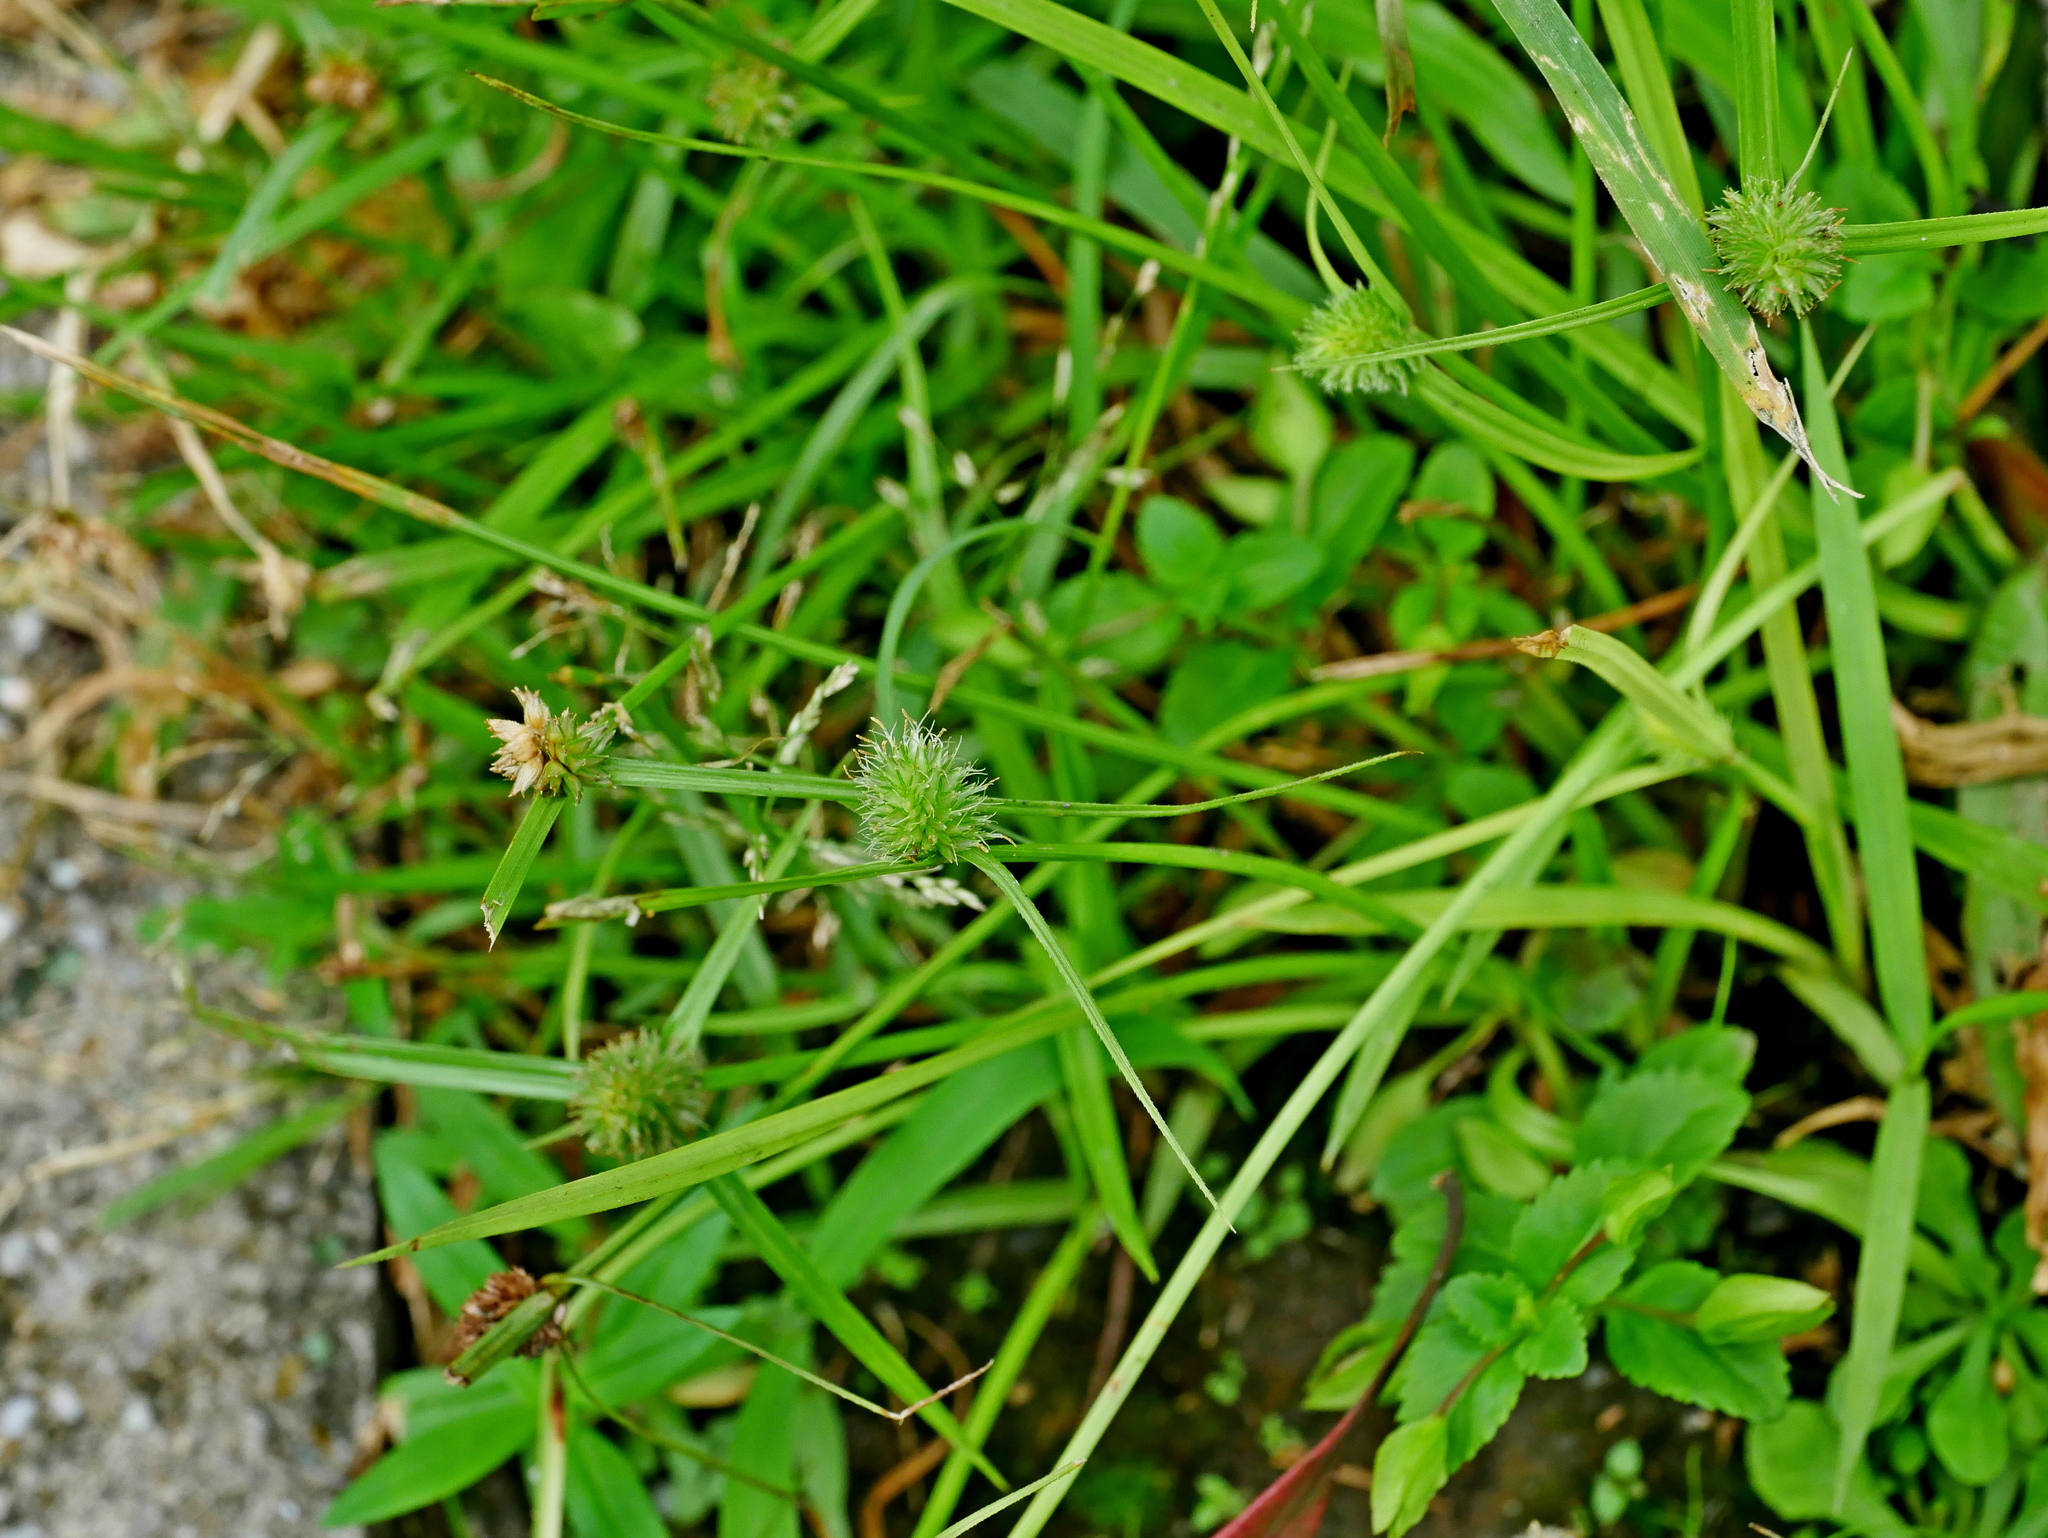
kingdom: Plantae
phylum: Tracheophyta
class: Liliopsida
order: Poales
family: Cyperaceae
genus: Cyperus
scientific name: Cyperus brevifolius
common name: Globe kyllinga
